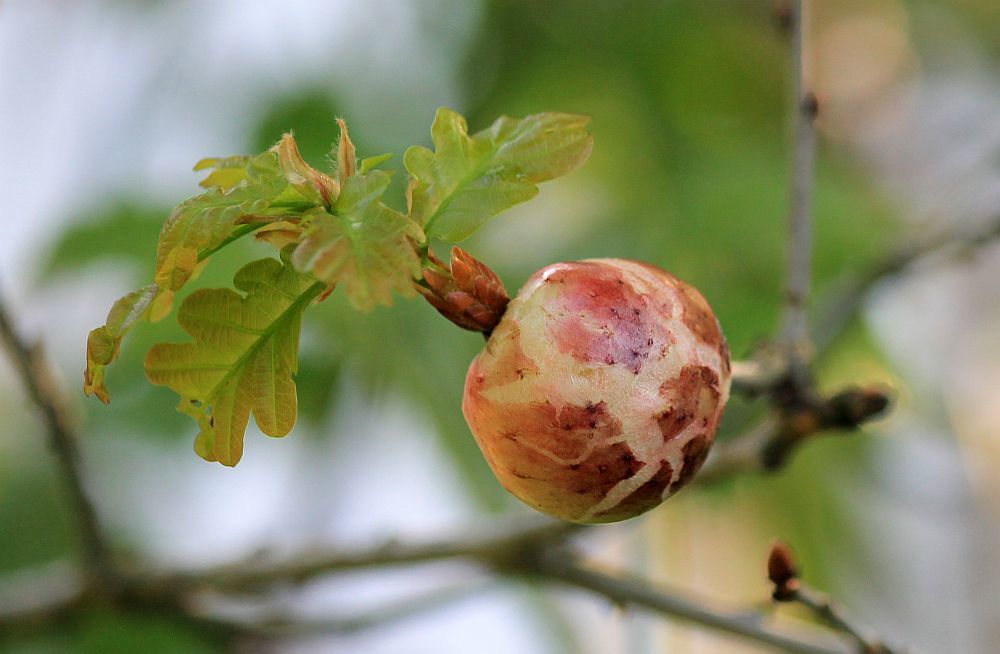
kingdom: Animalia
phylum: Arthropoda
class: Insecta
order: Hymenoptera
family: Cynipidae
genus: Biorhiza
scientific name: Biorhiza pallida
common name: Oak apple
